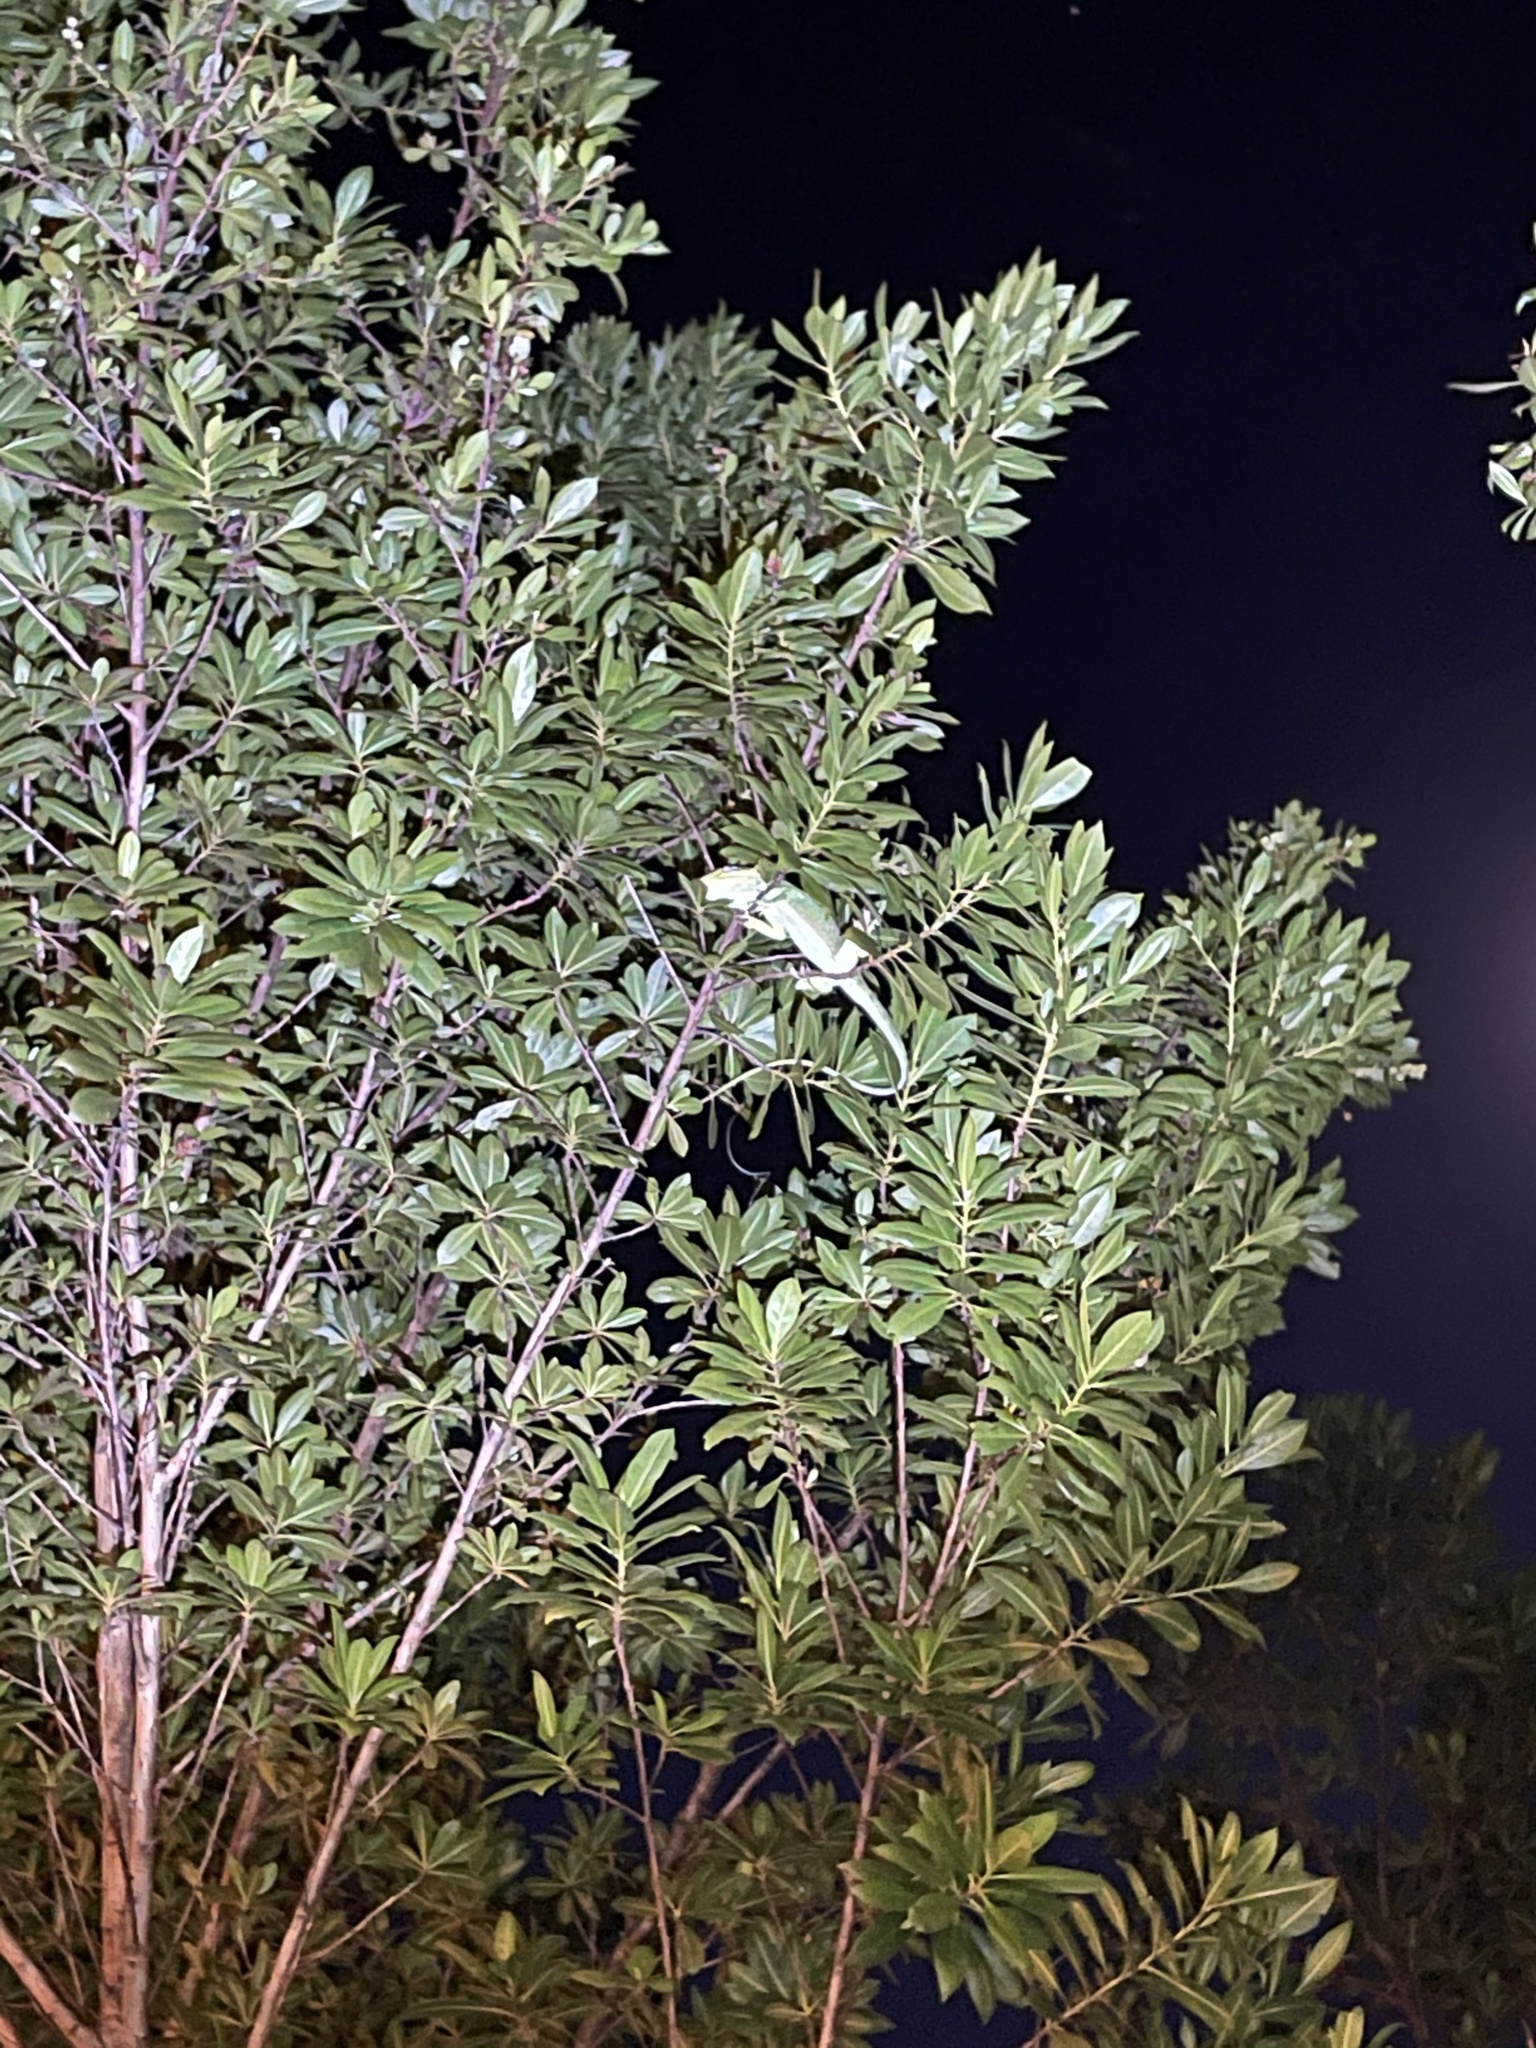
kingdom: Animalia
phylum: Chordata
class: Squamata
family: Dactyloidae
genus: Anolis
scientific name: Anolis equestris
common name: Knight anole
